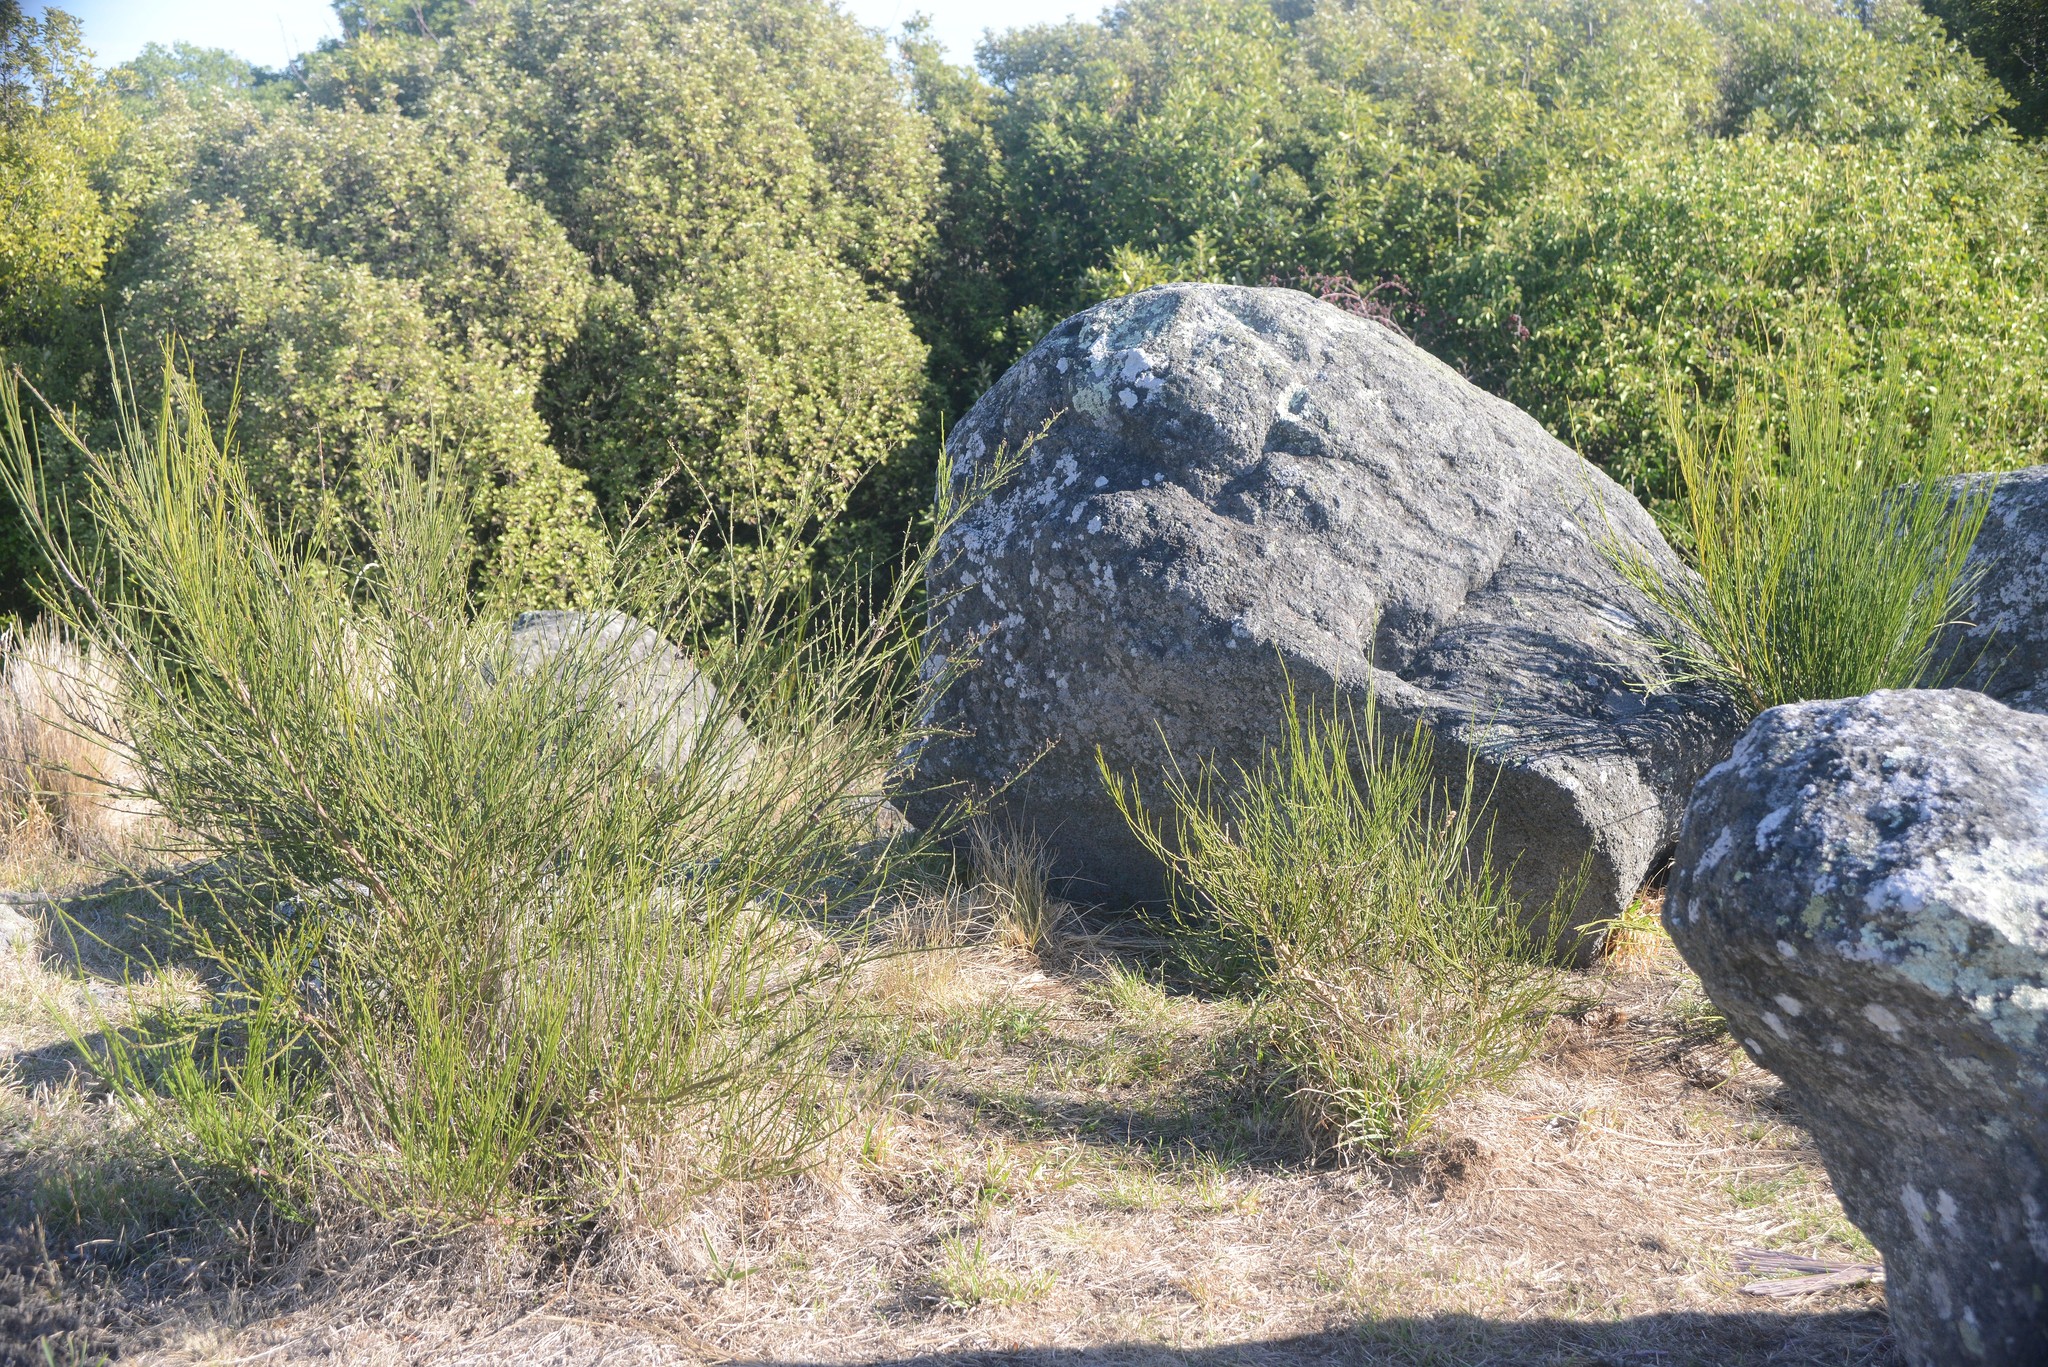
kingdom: Plantae
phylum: Tracheophyta
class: Magnoliopsida
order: Fabales
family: Fabaceae
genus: Cytisus
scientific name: Cytisus scoparius
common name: Scotch broom
